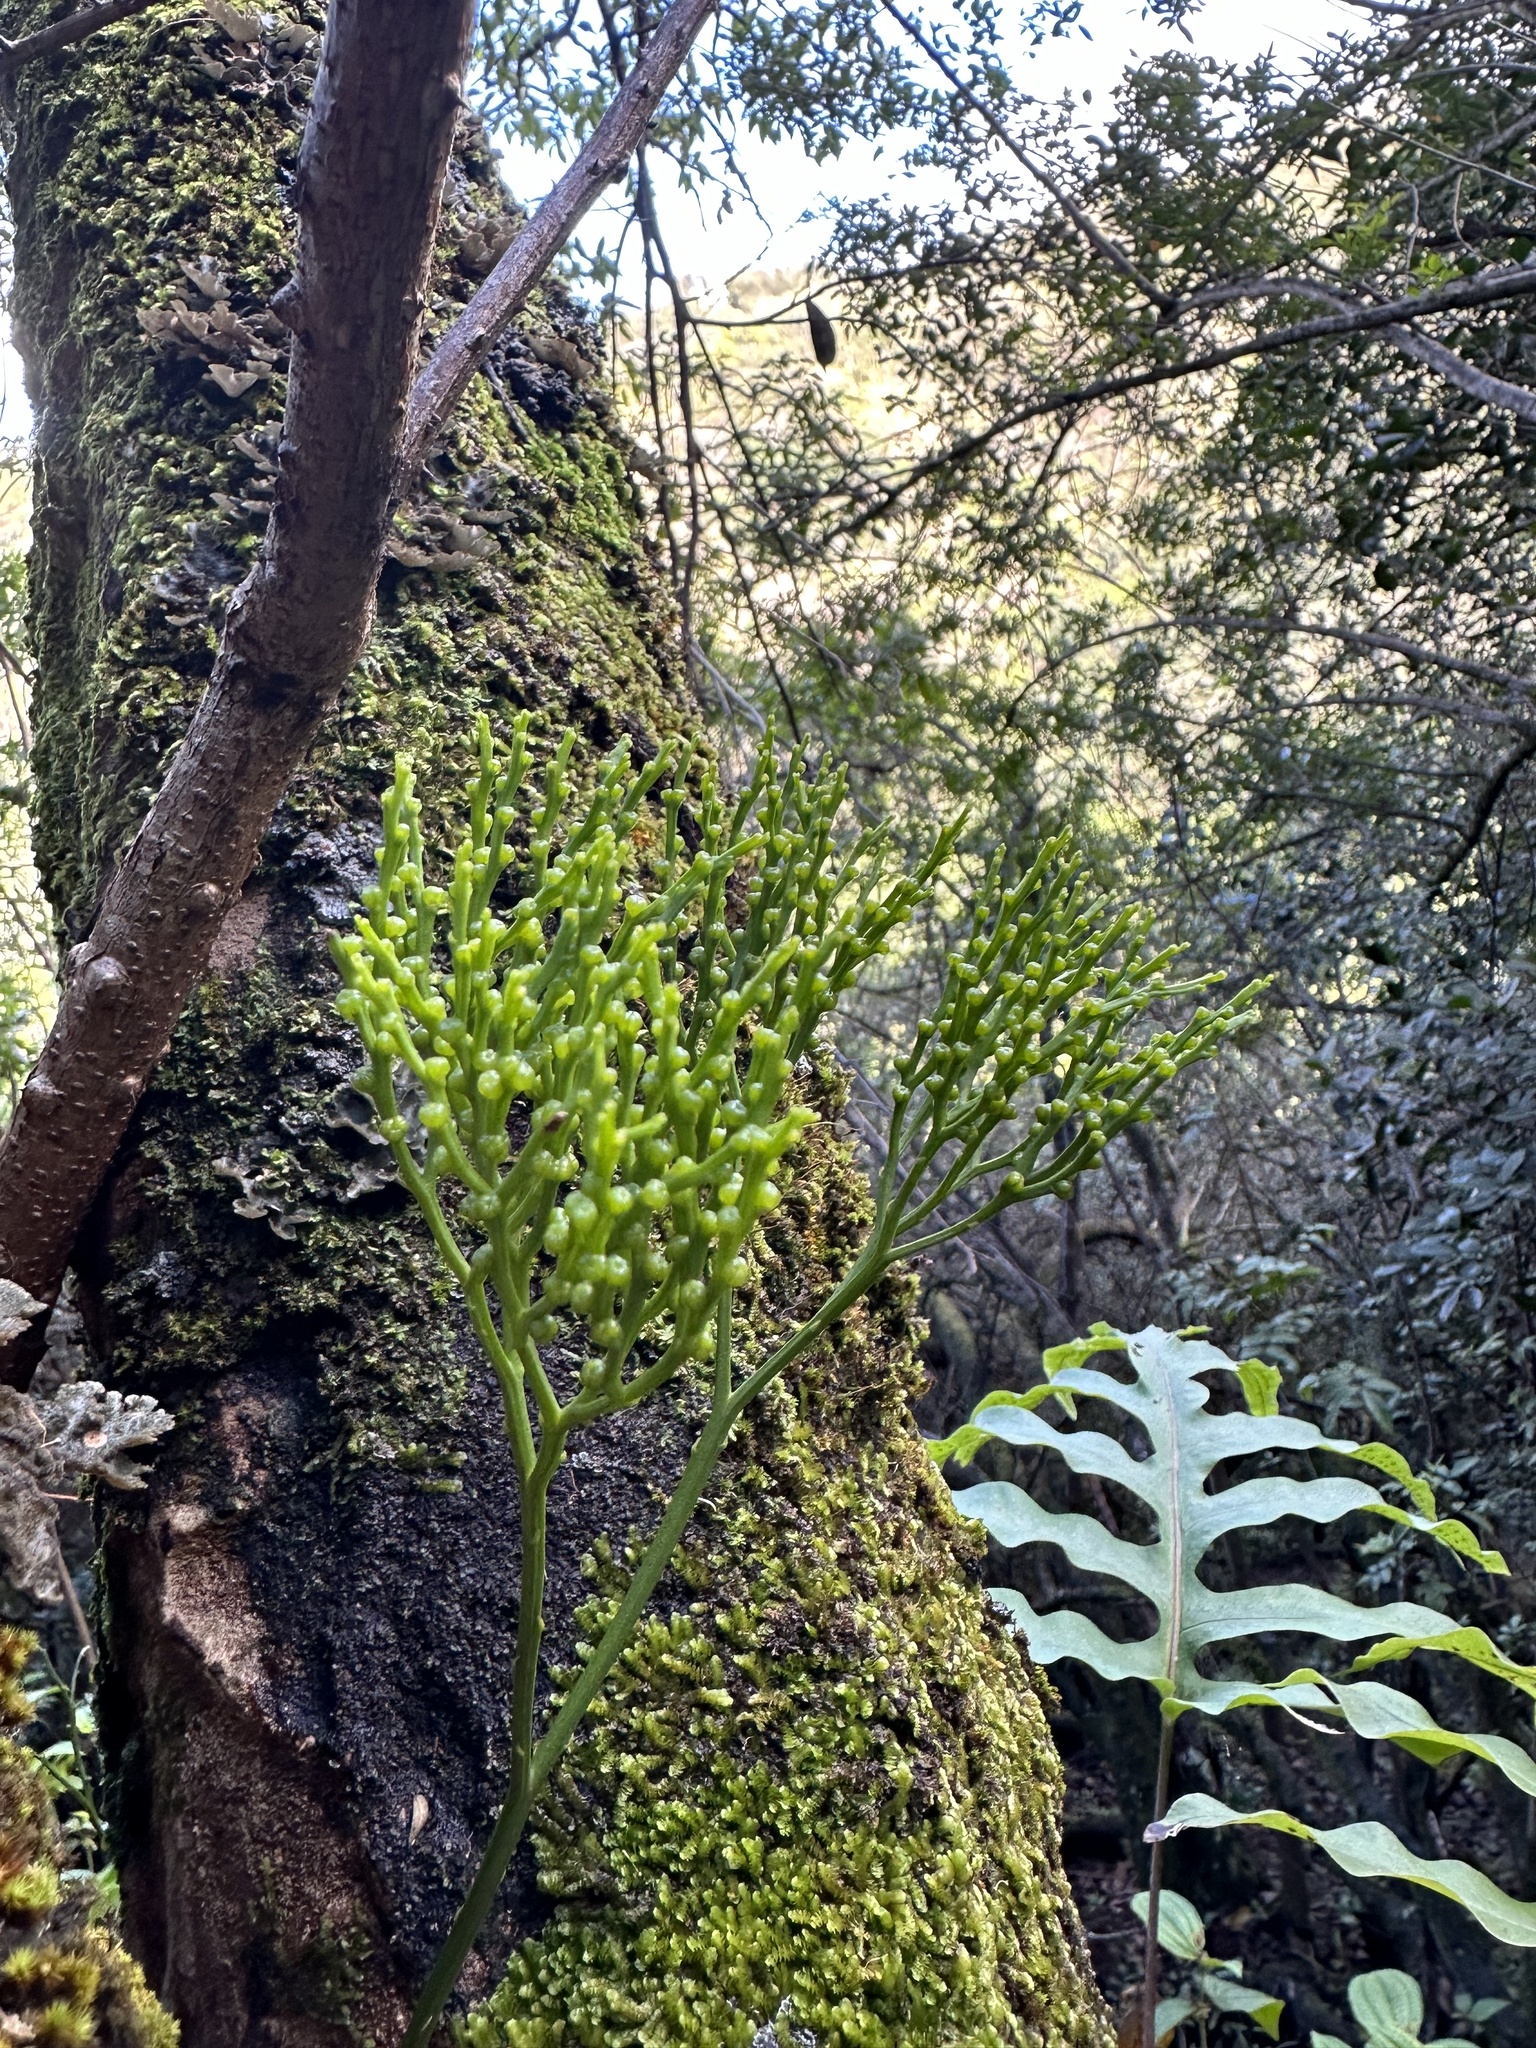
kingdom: Plantae
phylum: Tracheophyta
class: Polypodiopsida
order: Psilotales
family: Psilotaceae
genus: Psilotum
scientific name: Psilotum nudum
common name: Skeleton fork fern
